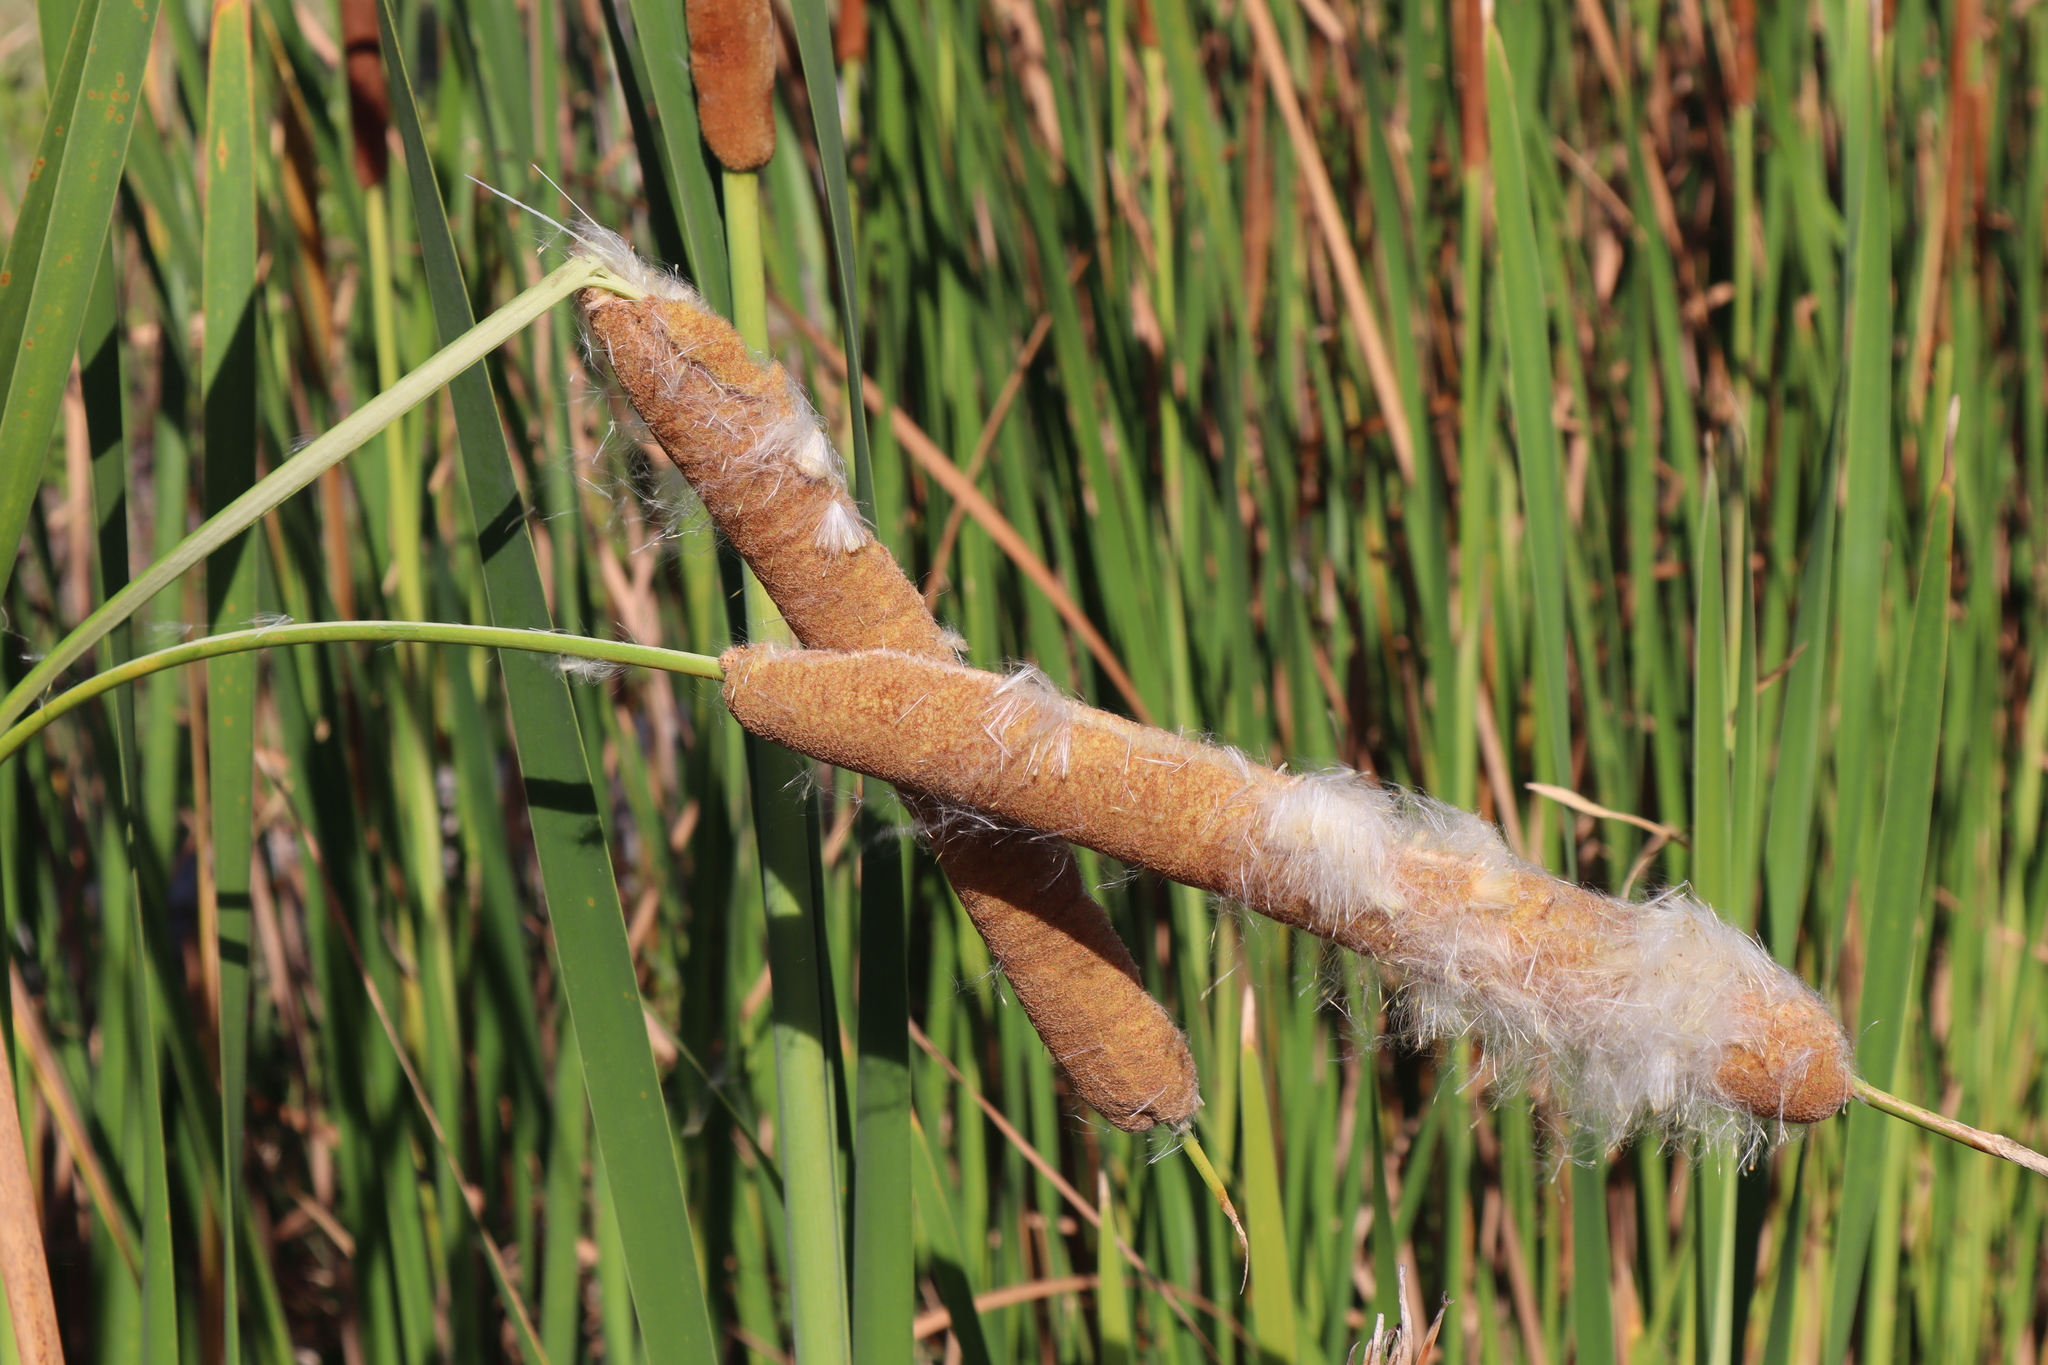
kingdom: Plantae
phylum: Tracheophyta
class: Liliopsida
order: Poales
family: Typhaceae
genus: Typha
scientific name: Typha domingensis
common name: Southern cattail
